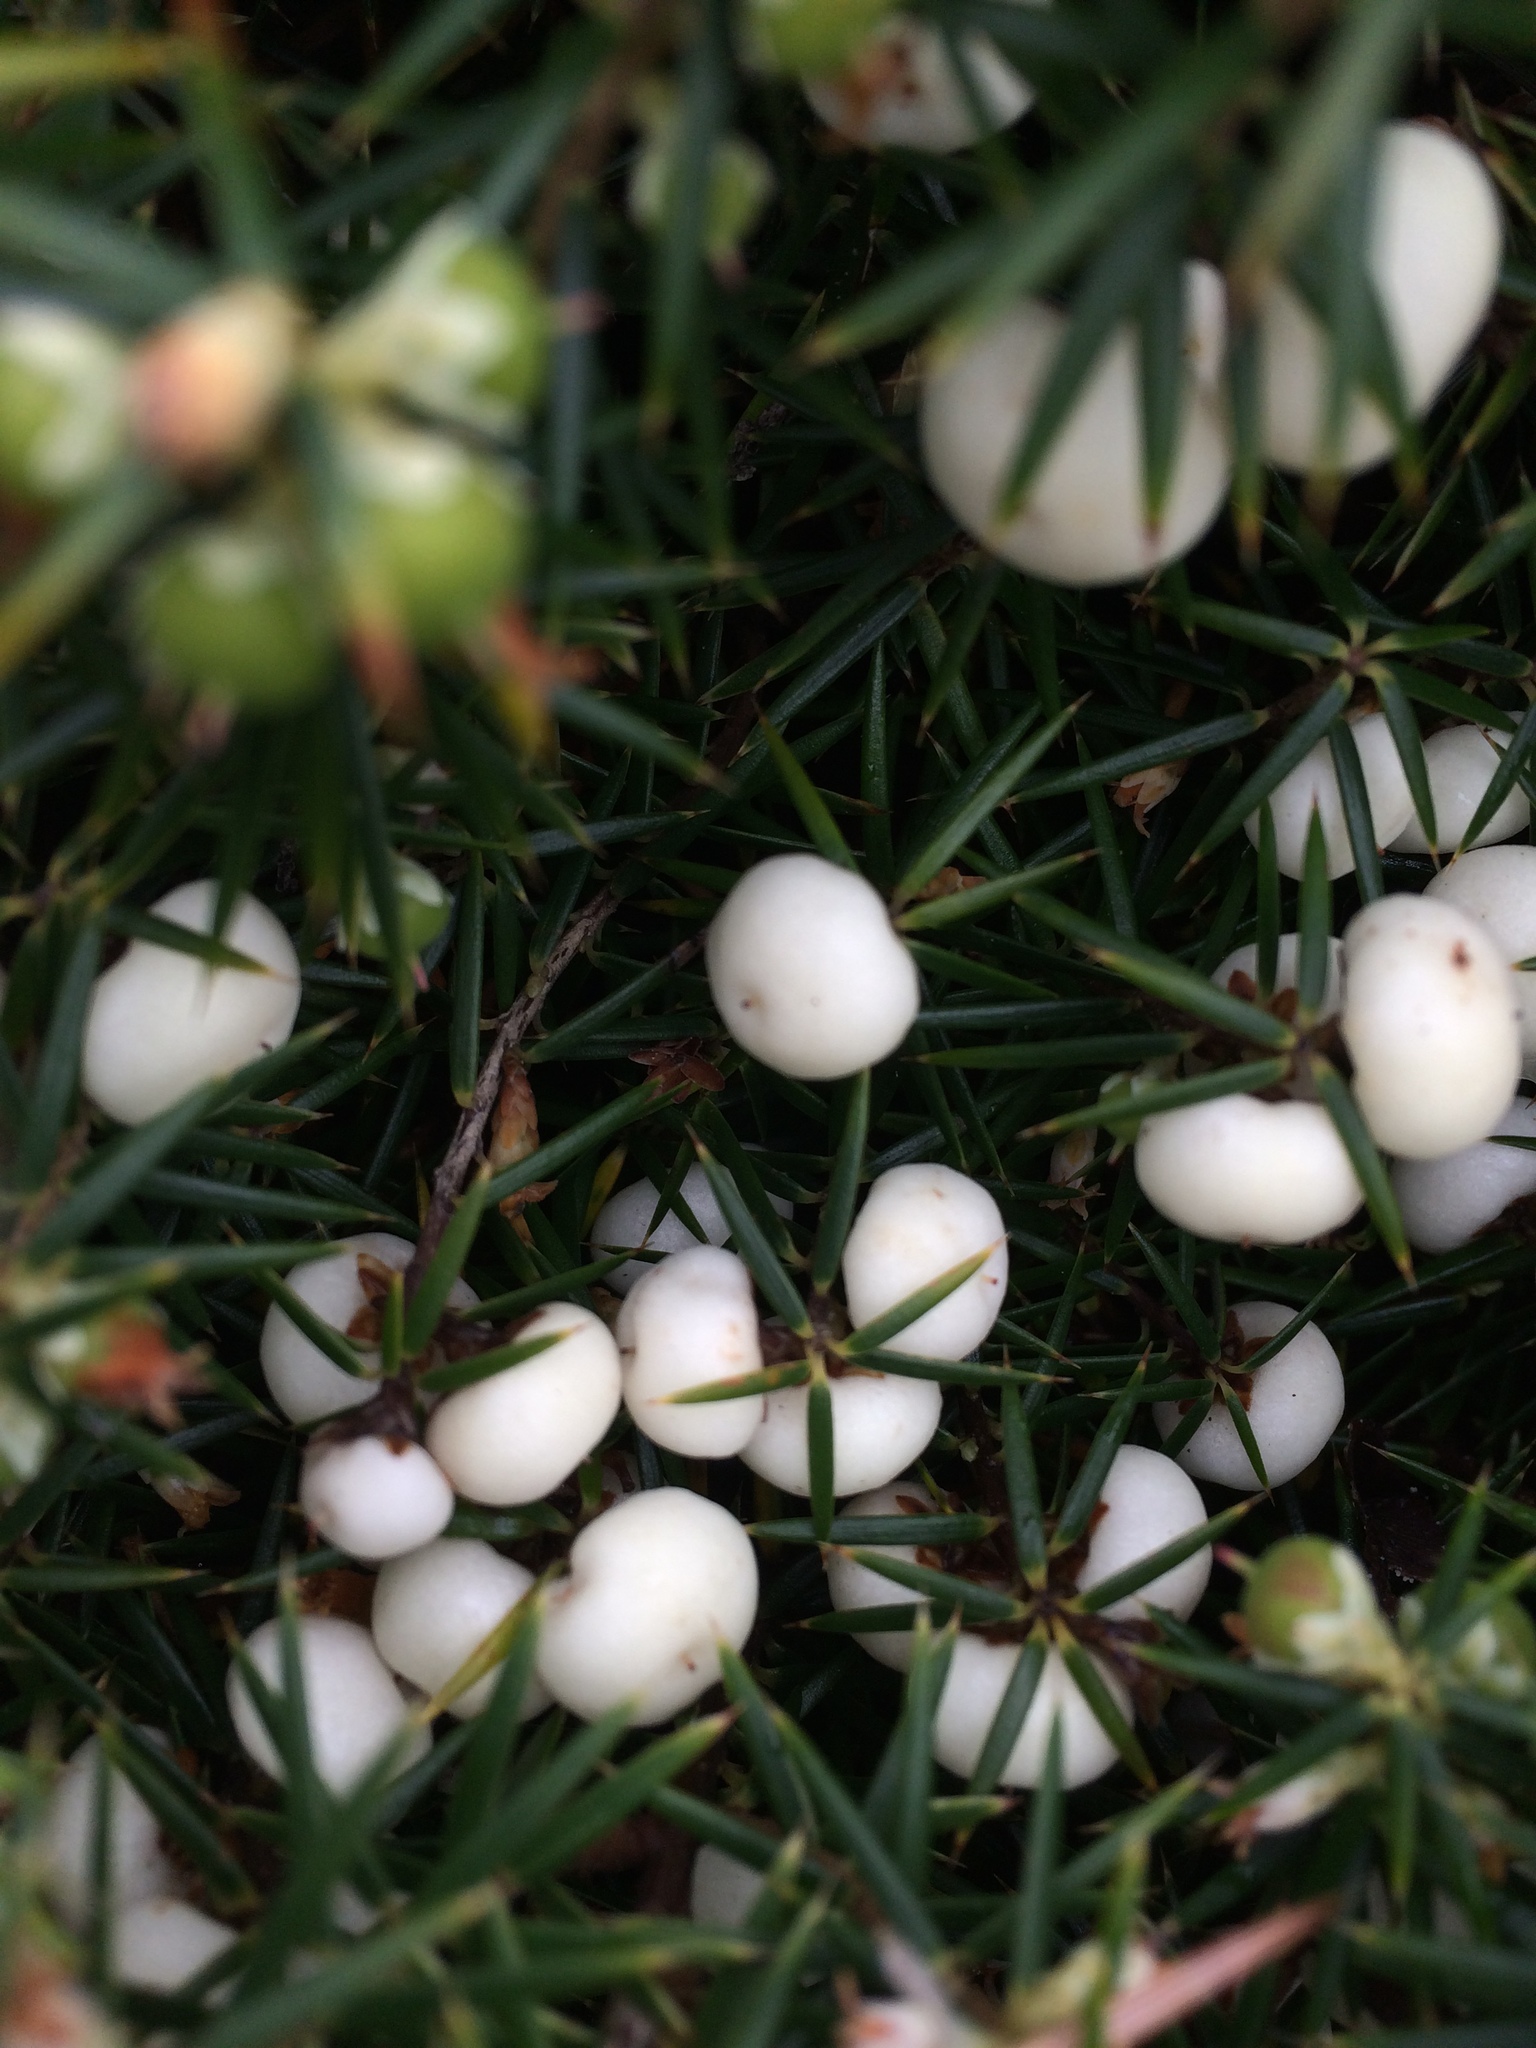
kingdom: Plantae
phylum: Tracheophyta
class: Magnoliopsida
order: Ericales
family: Ericaceae
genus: Leptecophylla
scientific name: Leptecophylla juniperina
